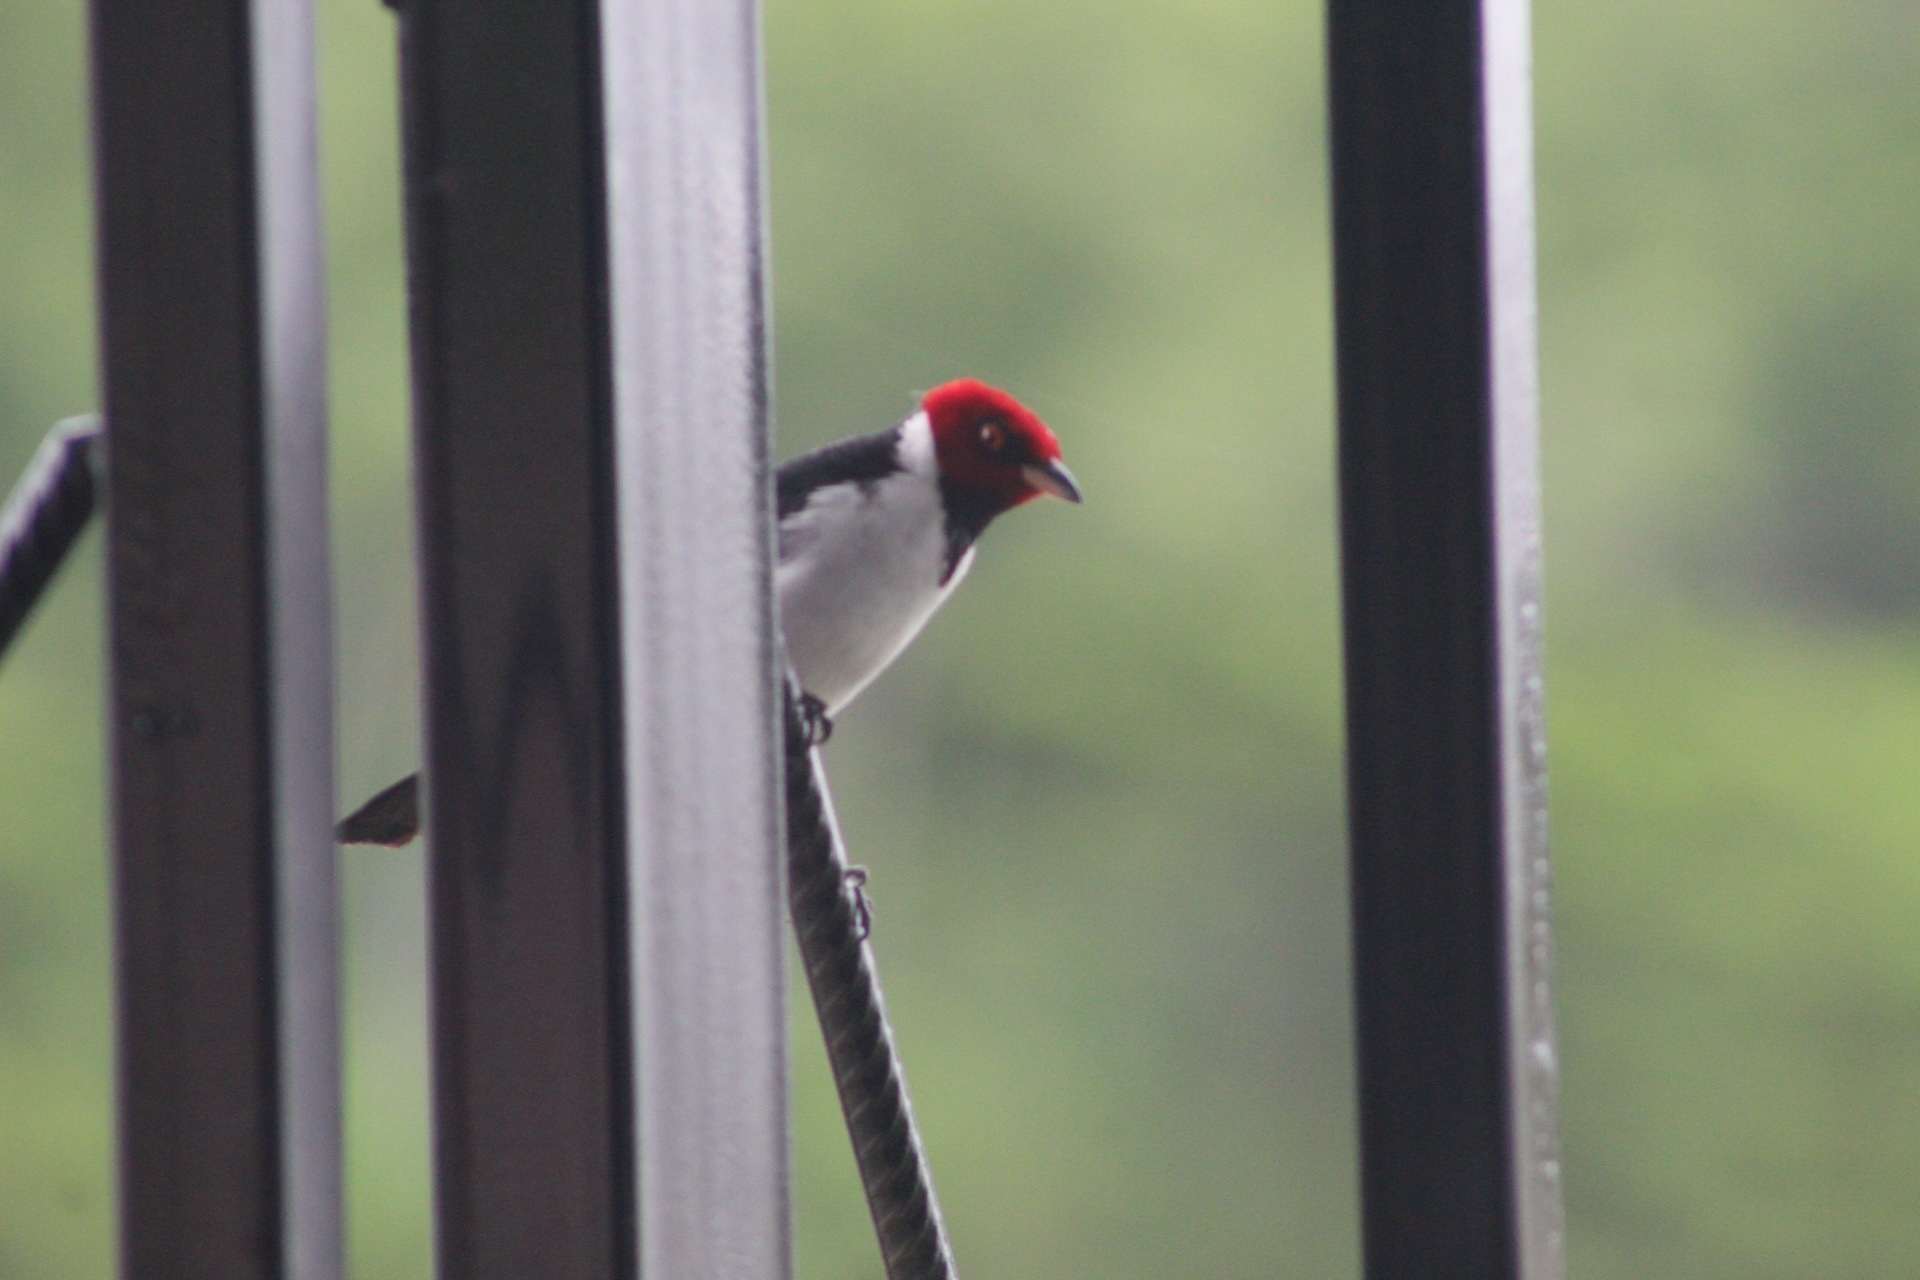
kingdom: Animalia
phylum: Chordata
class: Aves
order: Passeriformes
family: Thraupidae
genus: Paroaria
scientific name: Paroaria gularis
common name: Red-capped cardinal
